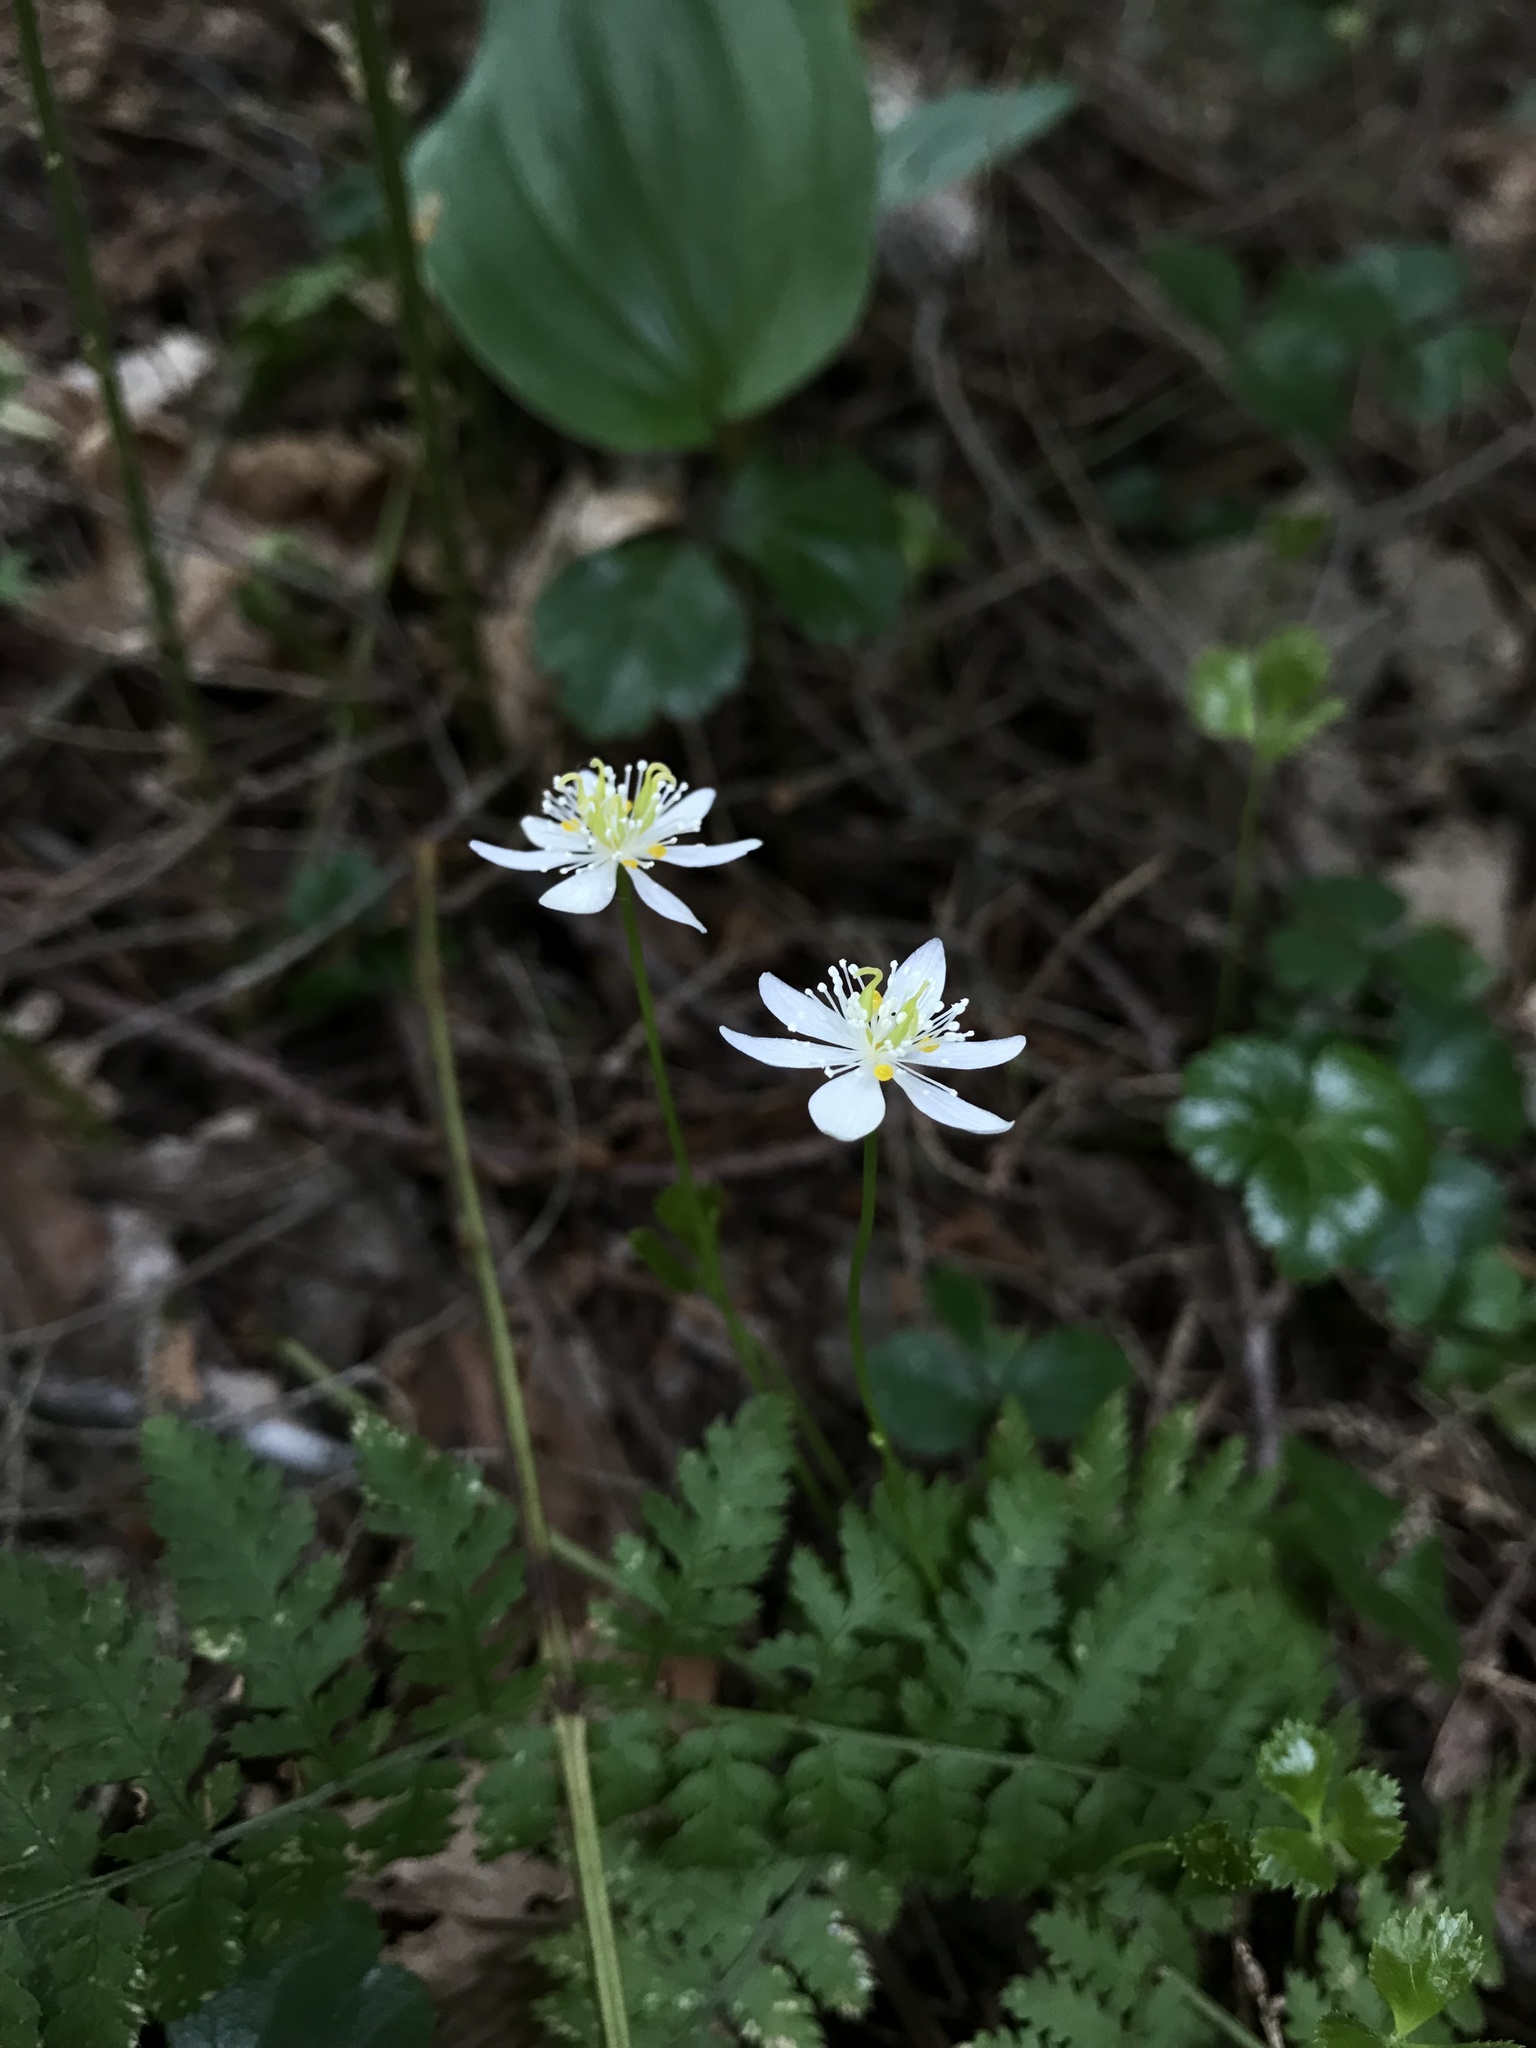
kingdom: Plantae
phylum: Tracheophyta
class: Magnoliopsida
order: Ranunculales
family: Ranunculaceae
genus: Coptis
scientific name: Coptis trifolia
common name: Canker-root
